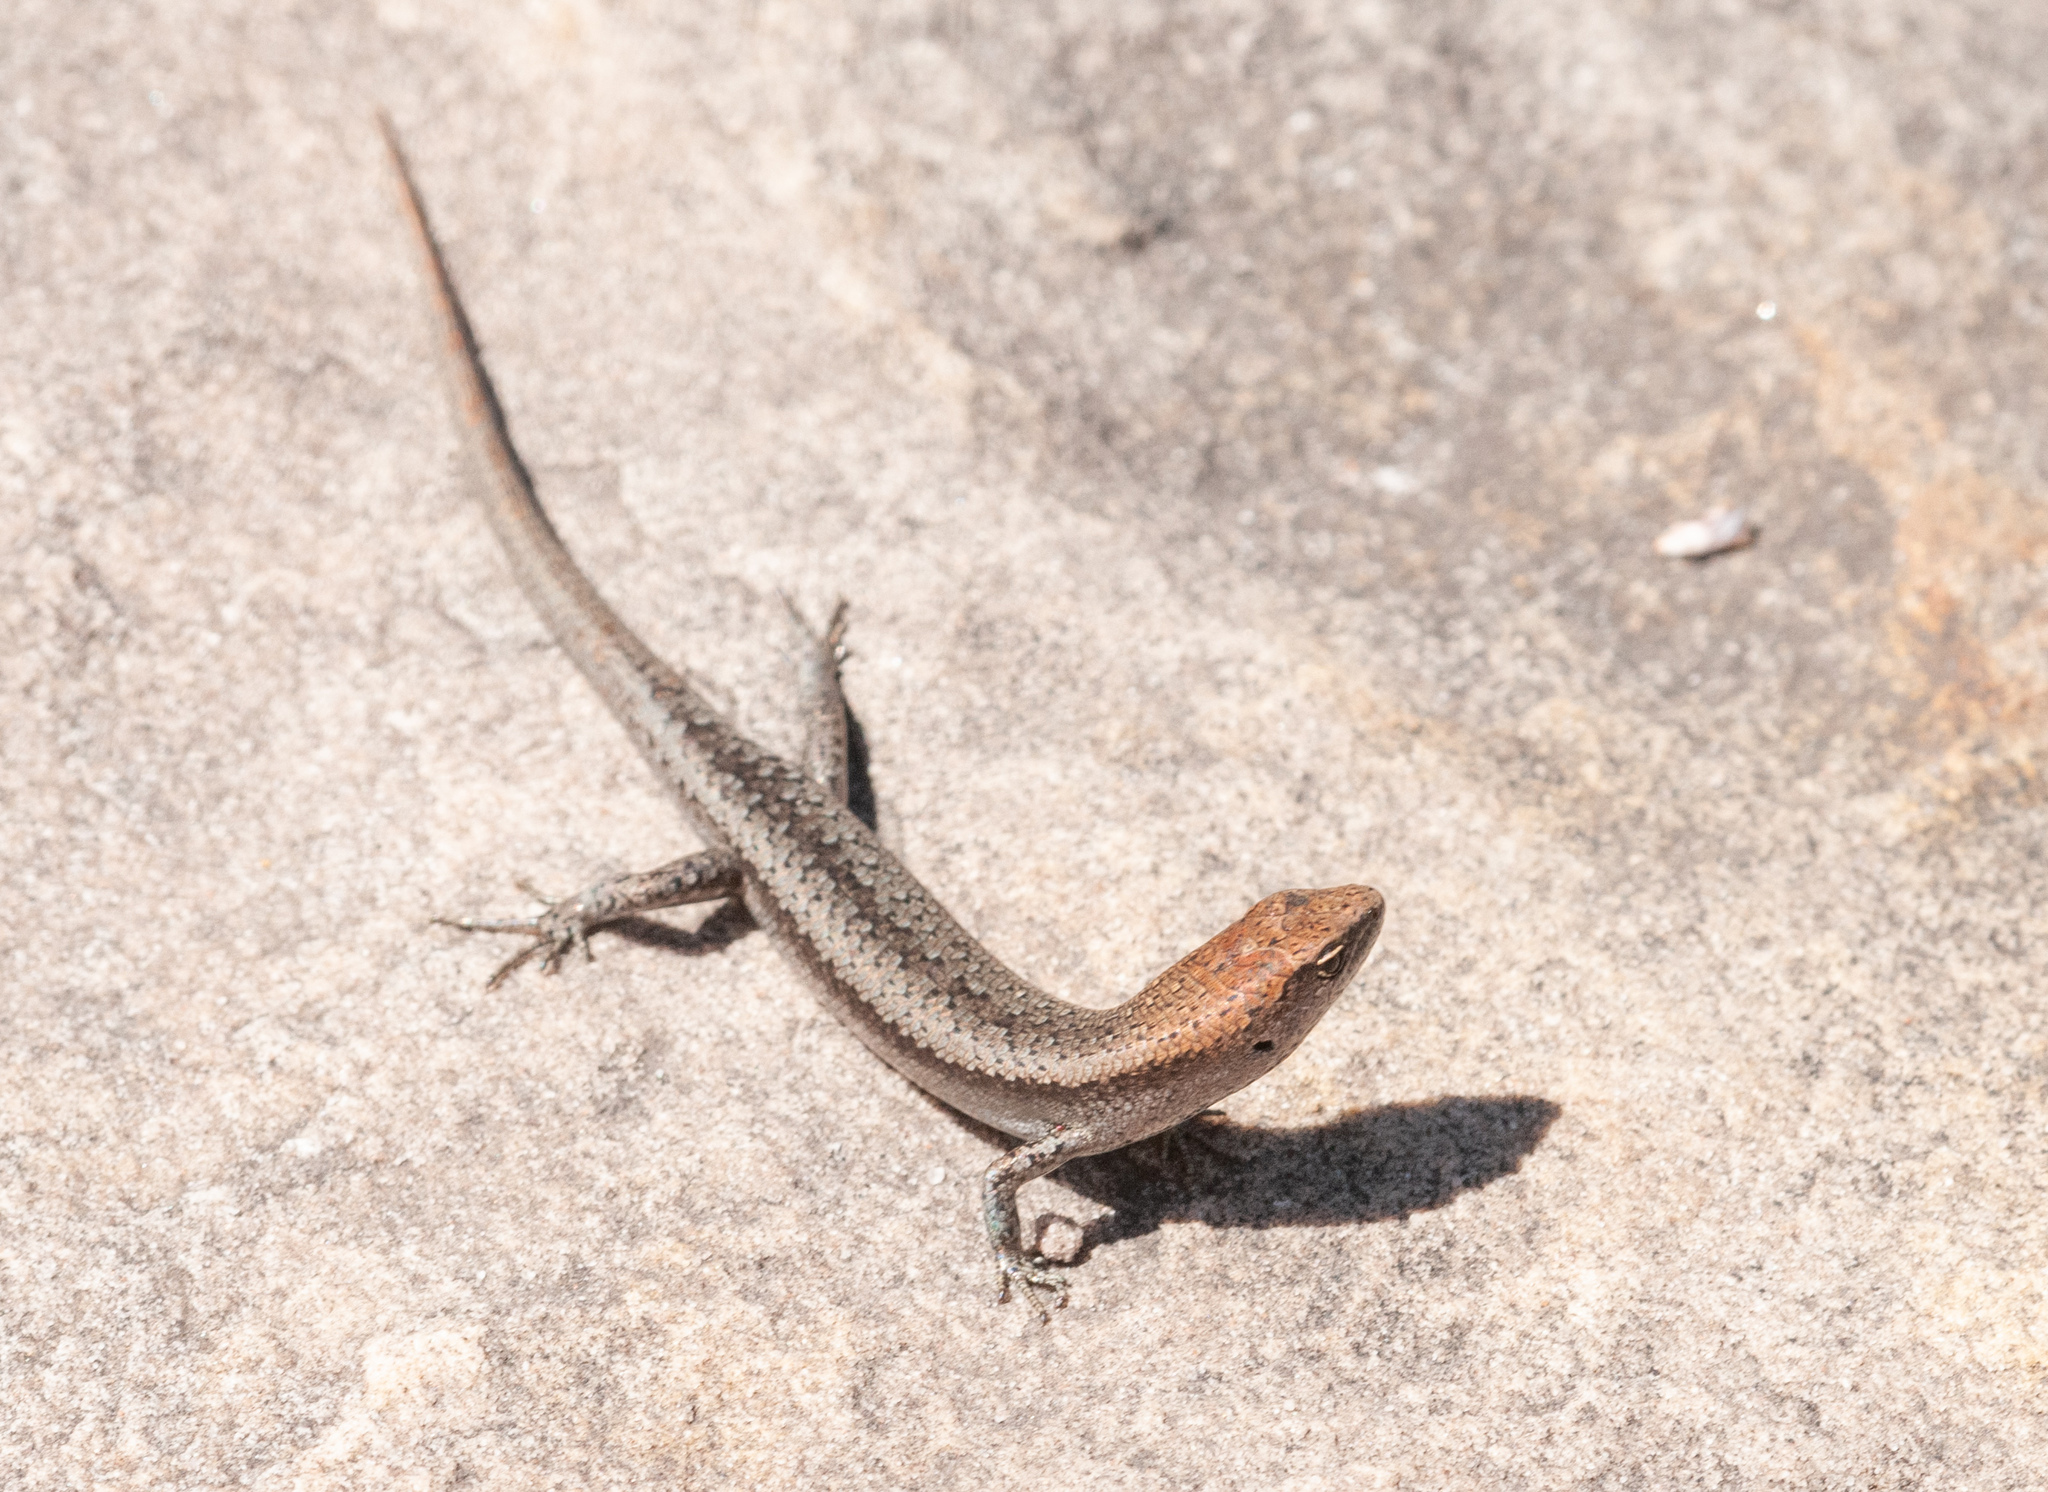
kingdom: Animalia
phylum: Chordata
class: Squamata
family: Scincidae
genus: Lampropholis
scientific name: Lampropholis guichenoti
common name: Garden skink
